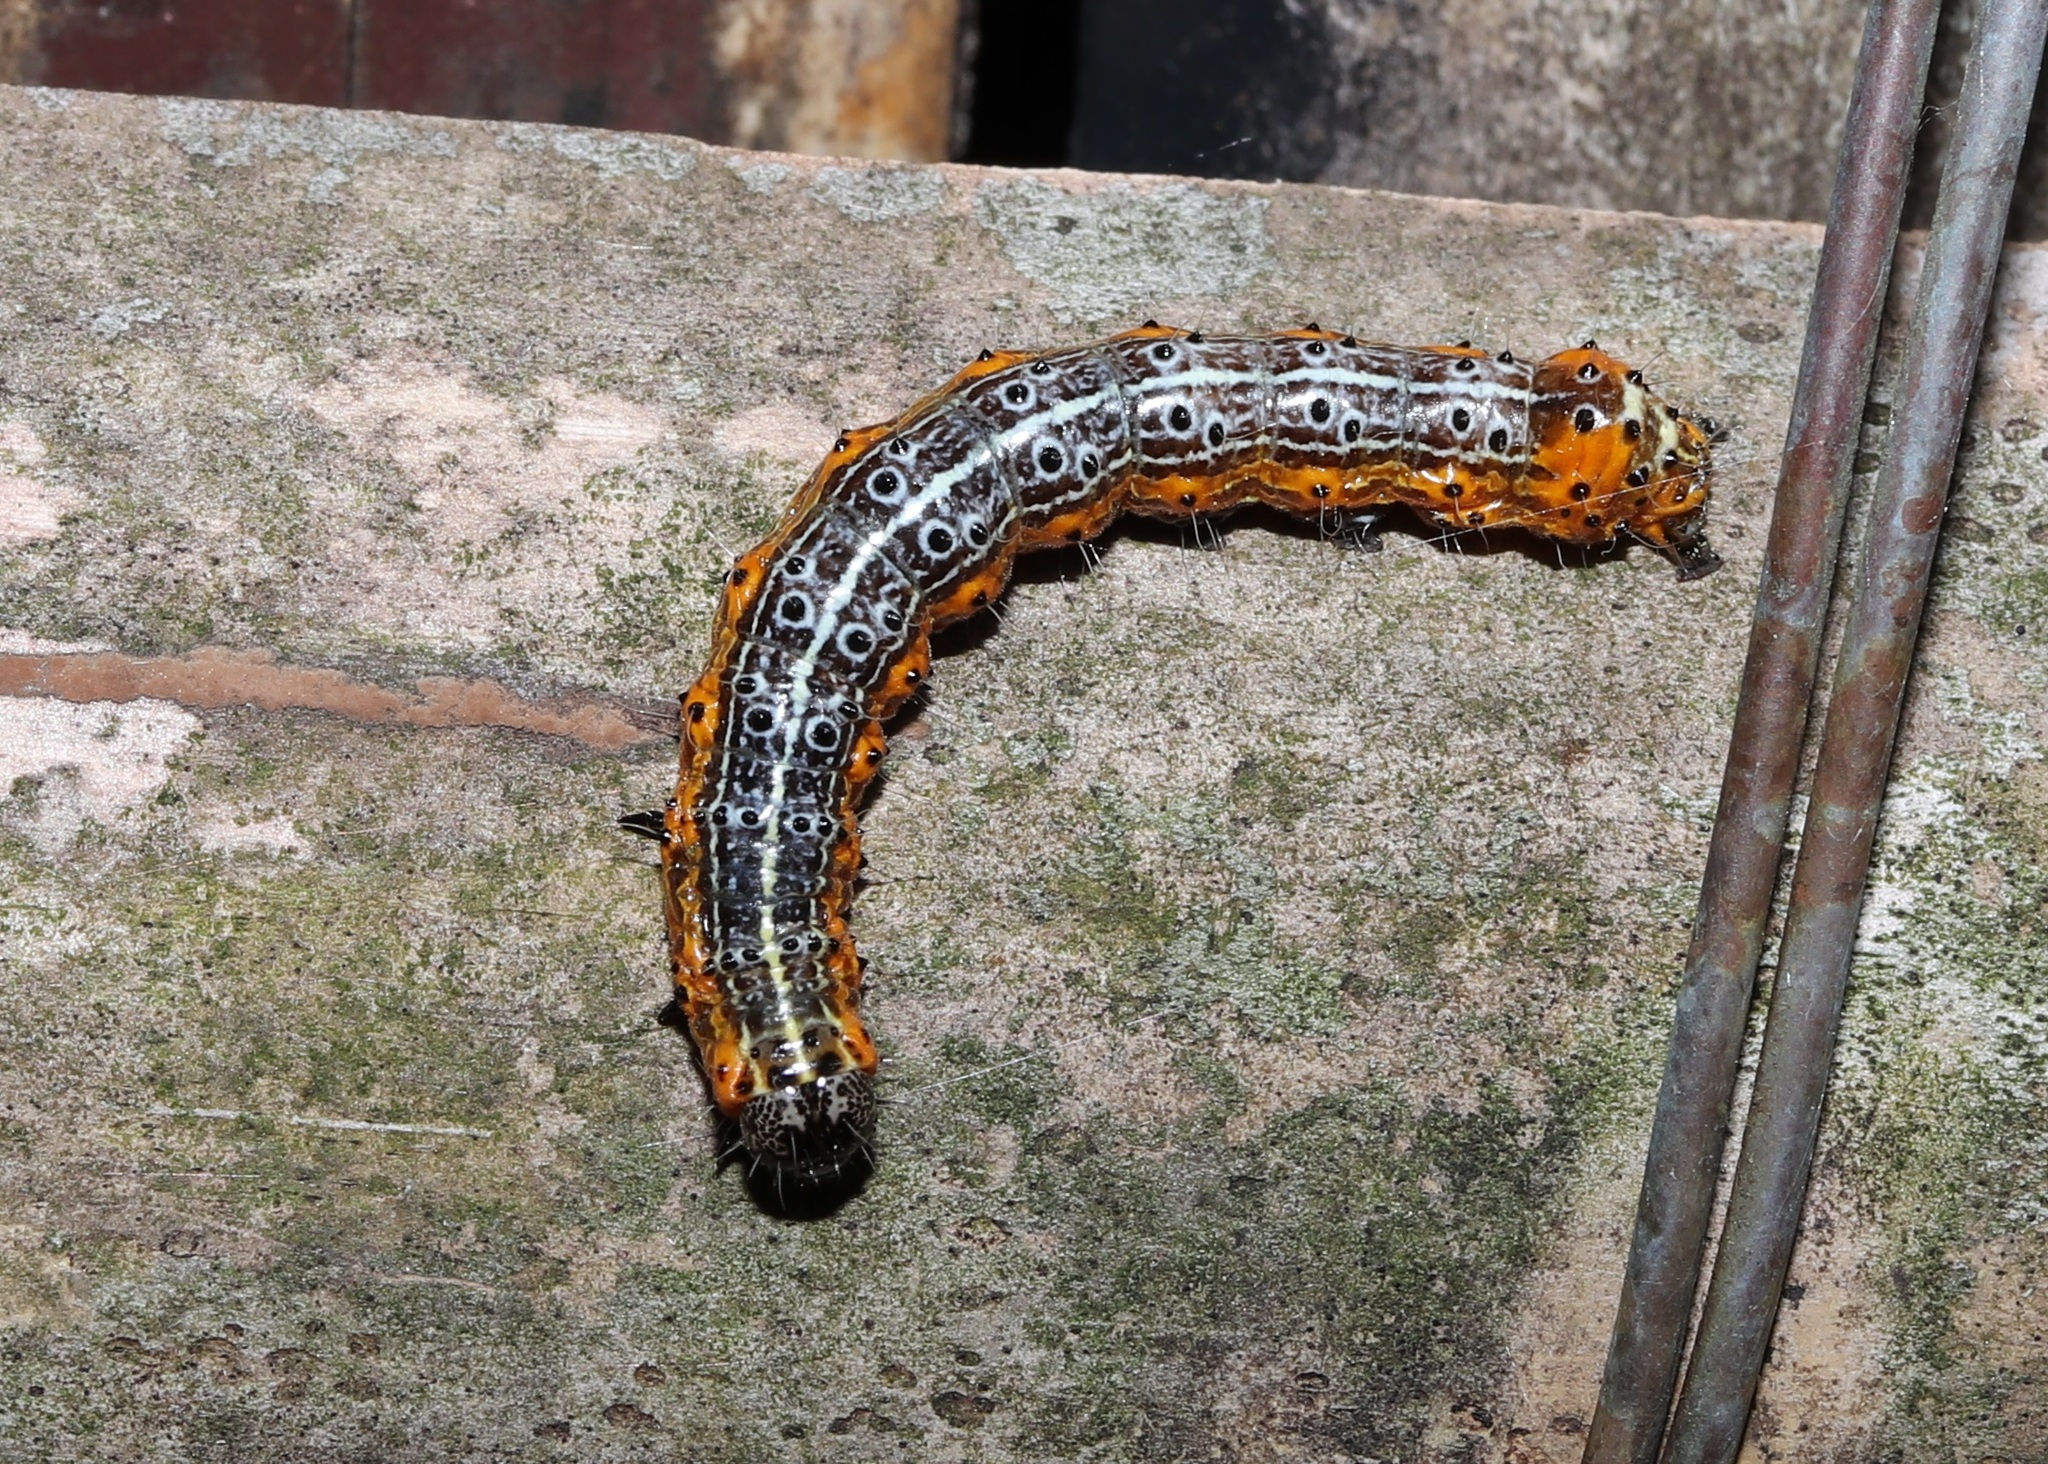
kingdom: Animalia
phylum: Arthropoda
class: Insecta
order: Lepidoptera
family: Noctuidae
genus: Orthosia
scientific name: Orthosia limbata
